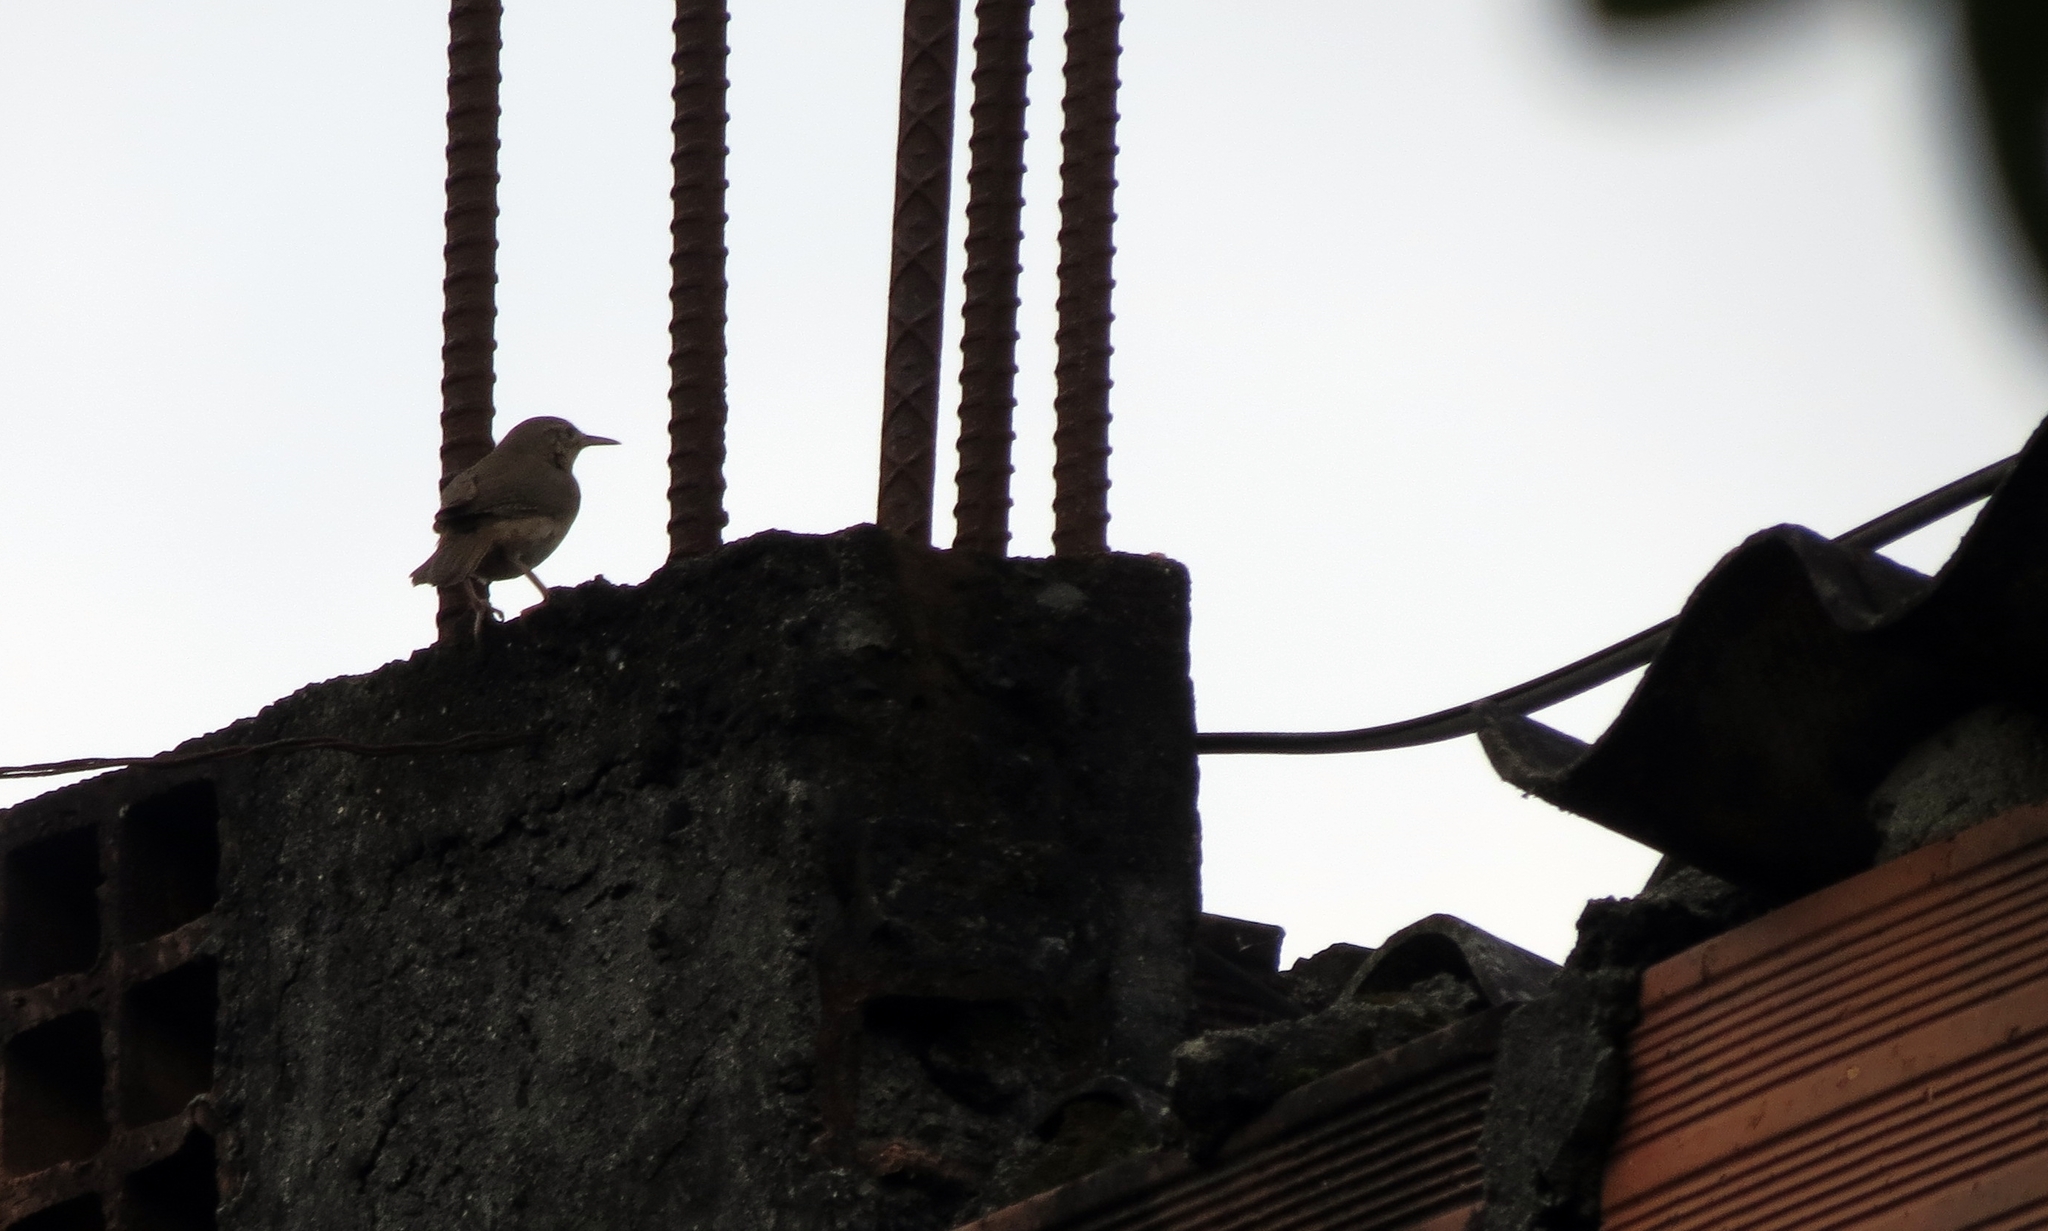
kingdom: Animalia
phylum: Chordata
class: Aves
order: Passeriformes
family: Troglodytidae
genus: Troglodytes
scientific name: Troglodytes aedon
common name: House wren
